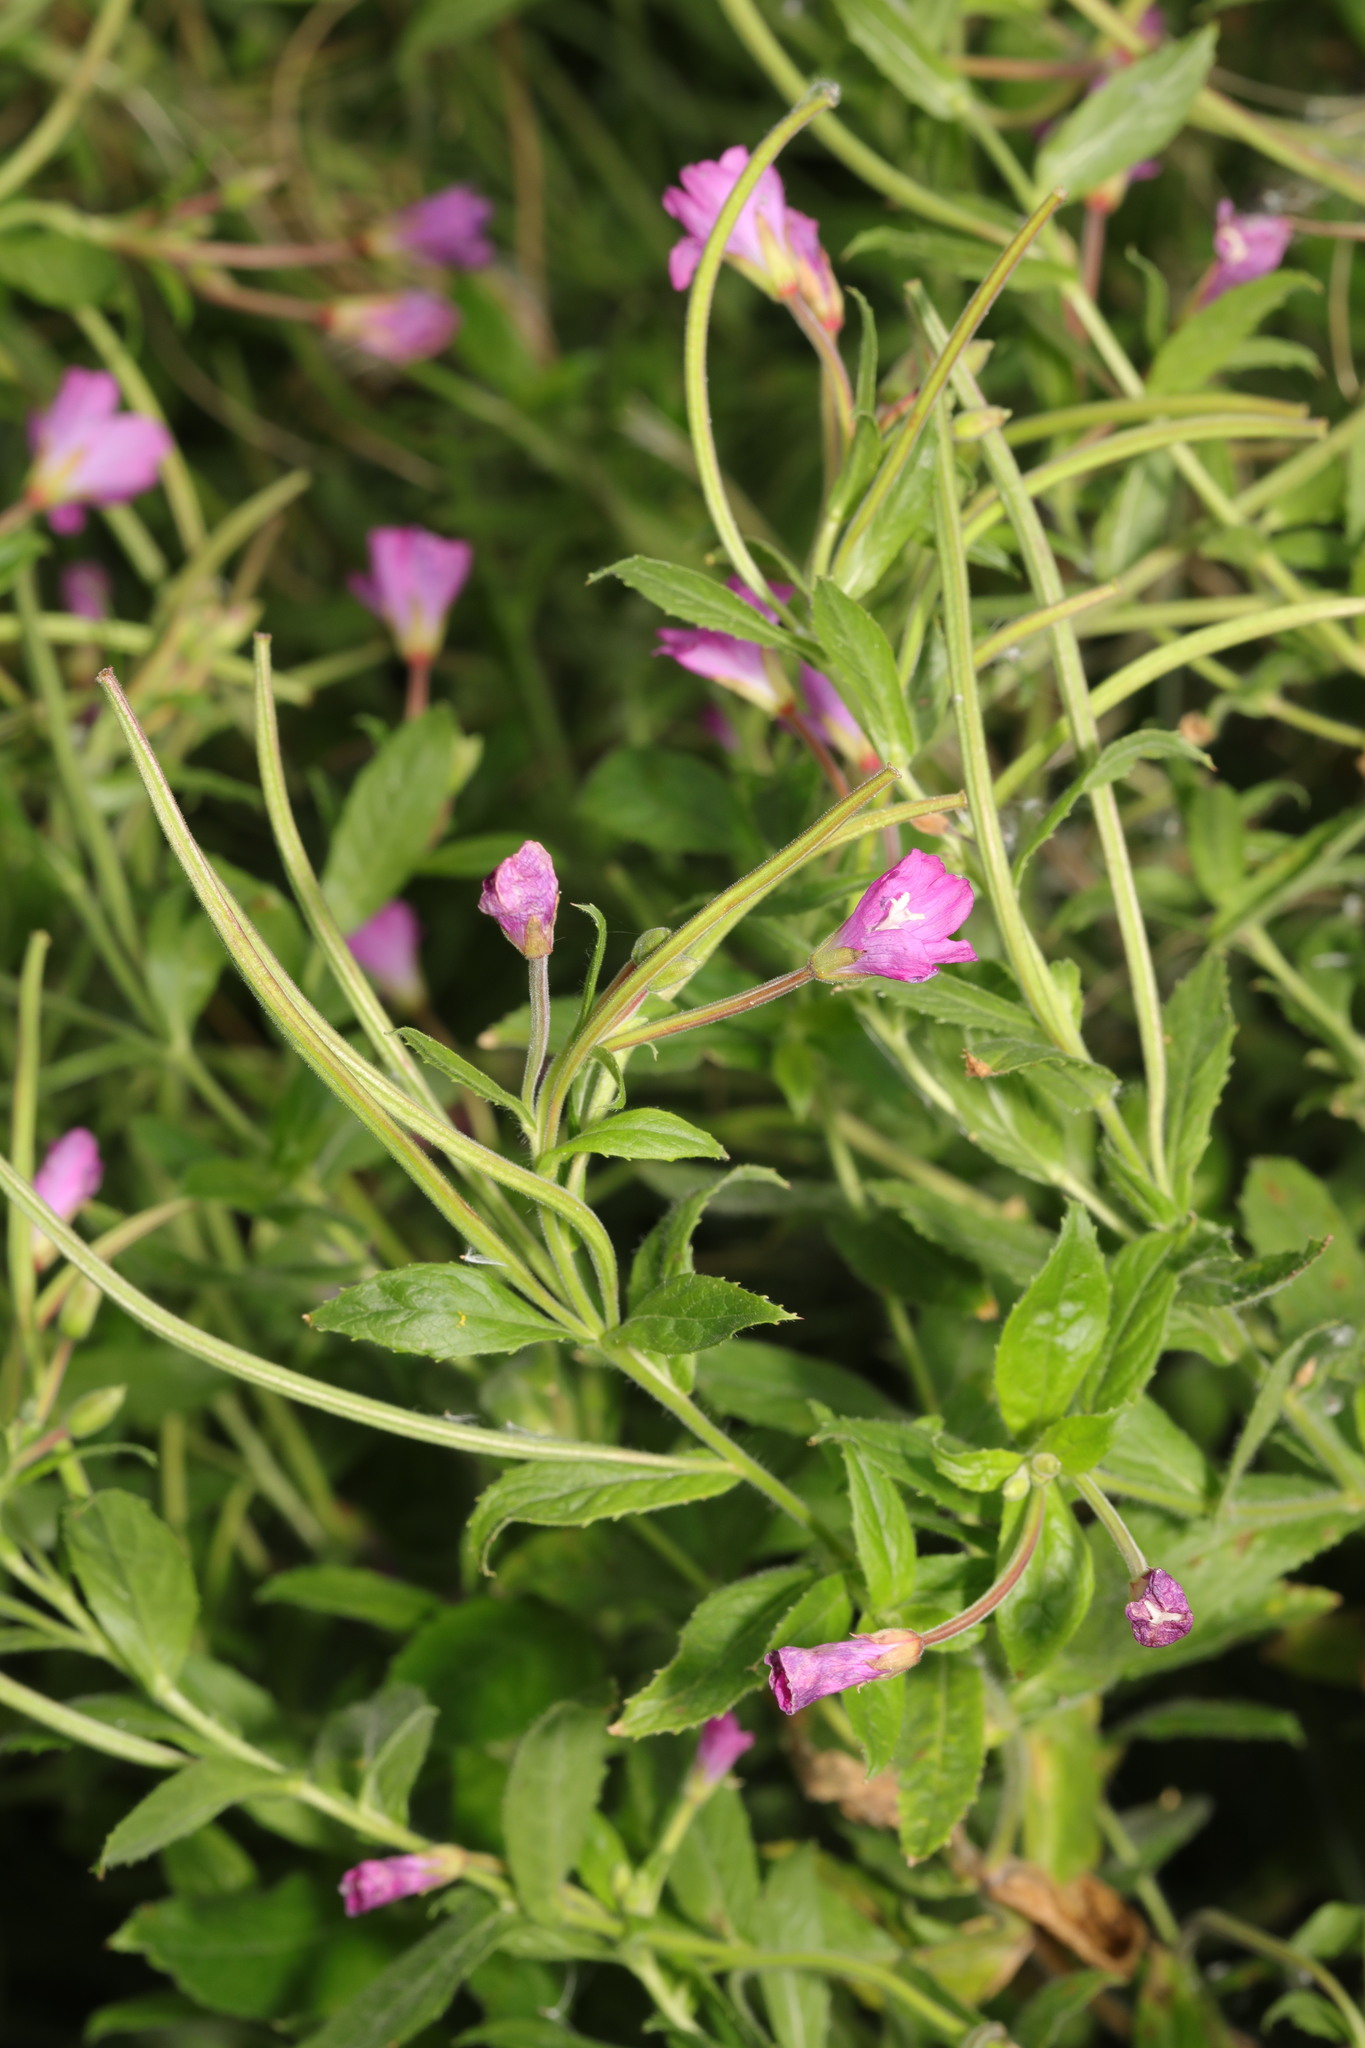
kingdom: Plantae
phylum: Tracheophyta
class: Magnoliopsida
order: Myrtales
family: Onagraceae
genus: Epilobium
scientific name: Epilobium hirsutum
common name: Great willowherb
